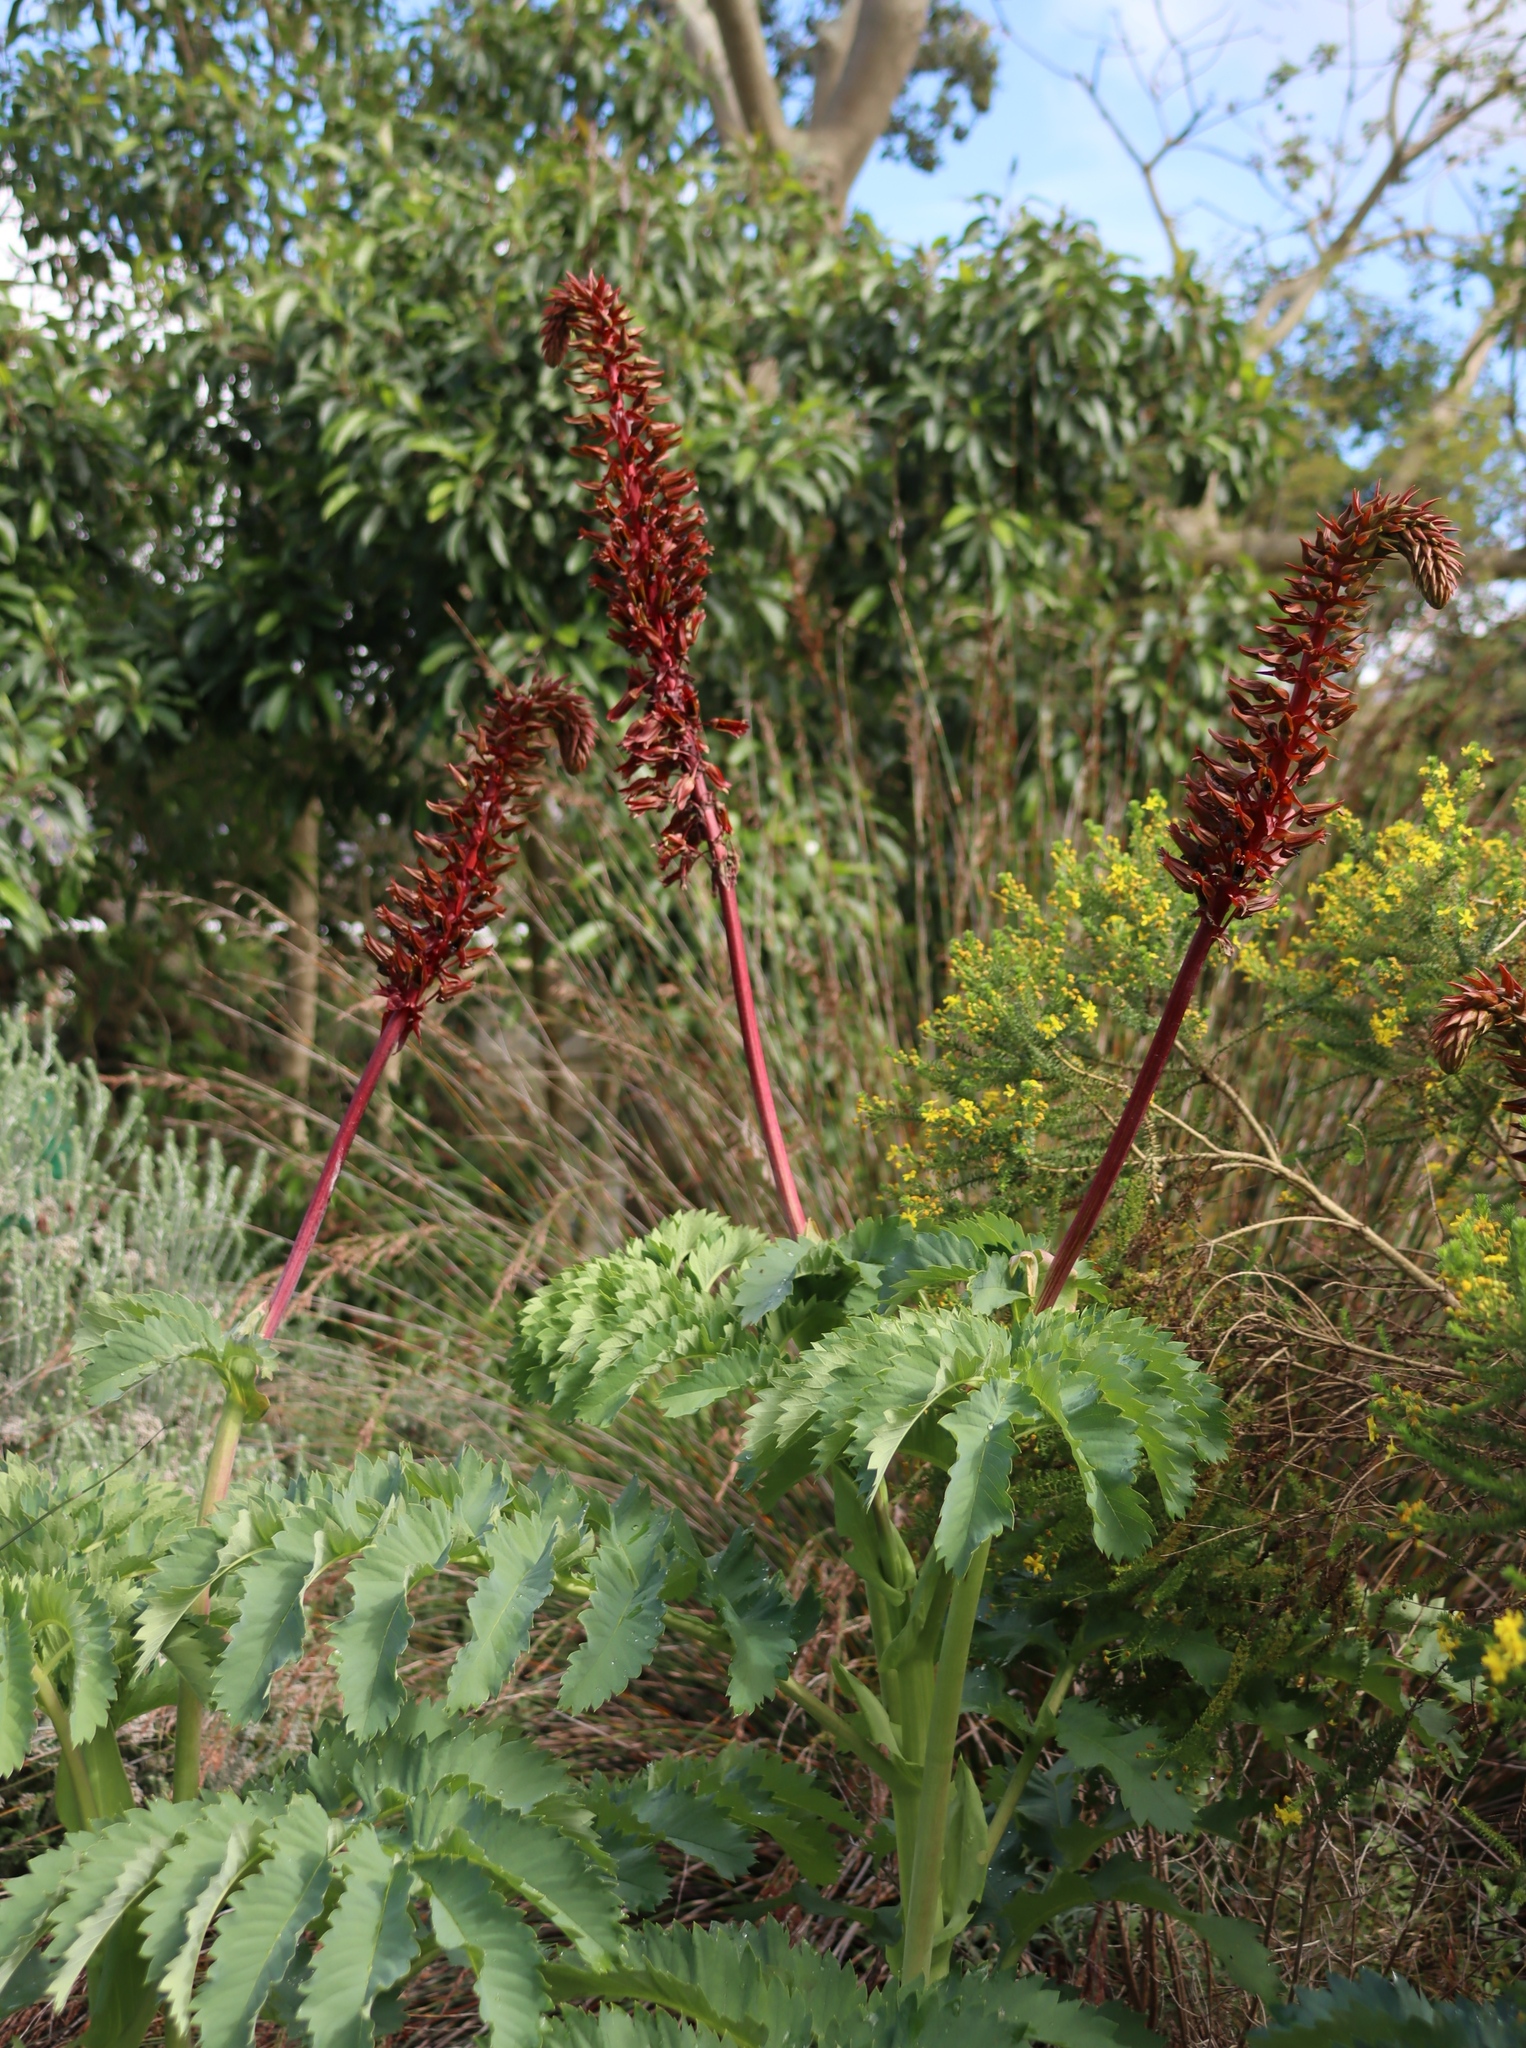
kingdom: Plantae
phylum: Tracheophyta
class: Magnoliopsida
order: Geraniales
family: Melianthaceae
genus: Melianthus
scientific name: Melianthus major
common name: Honey-flower
